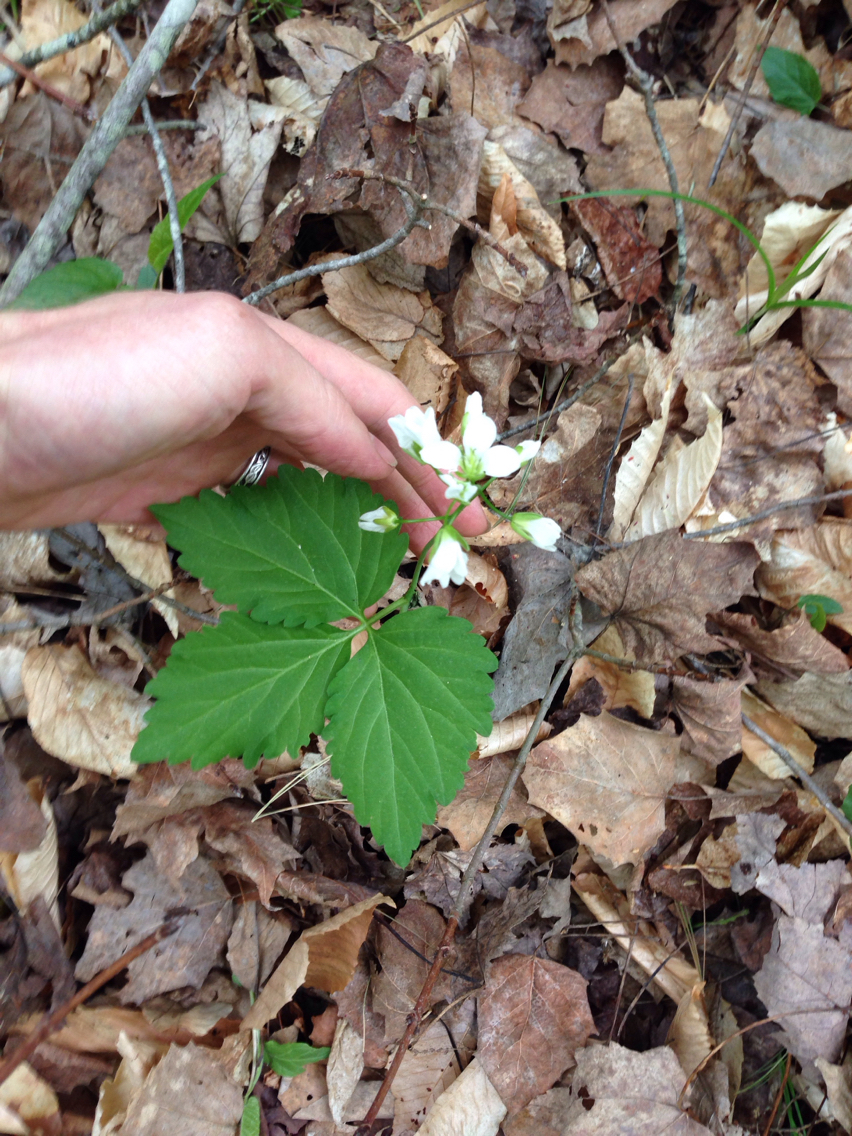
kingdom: Plantae
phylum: Tracheophyta
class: Magnoliopsida
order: Brassicales
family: Brassicaceae
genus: Cardamine
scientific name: Cardamine diphylla
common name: Broad-leaved toothwort
